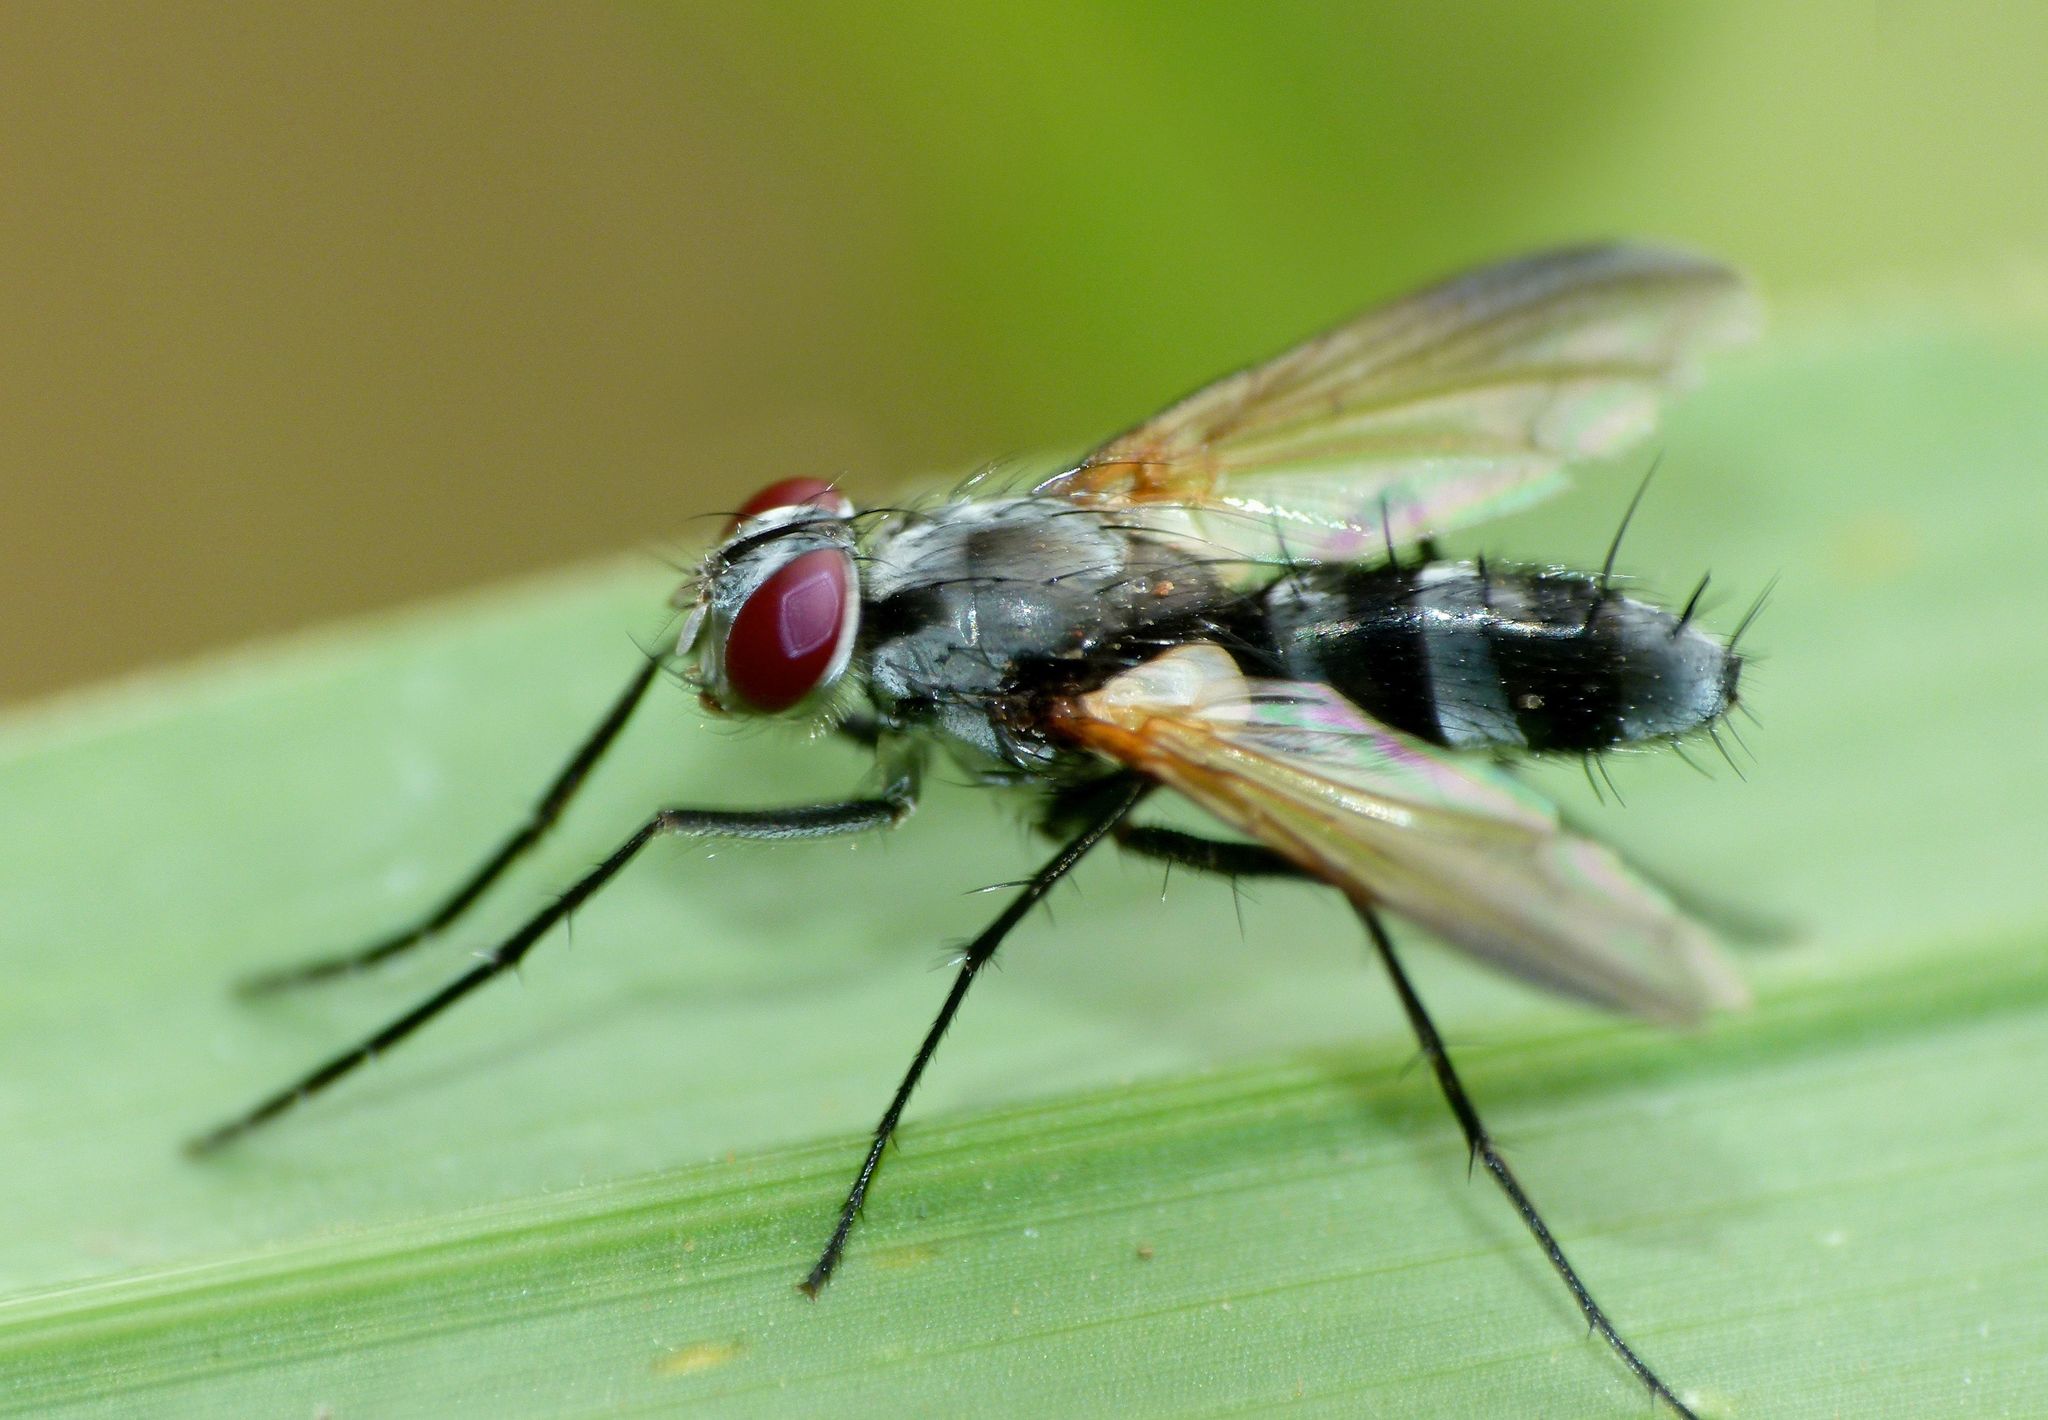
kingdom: Animalia
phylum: Arthropoda
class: Insecta
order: Diptera
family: Tachinidae
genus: Sumpigaster
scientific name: Sumpigaster fasciata
